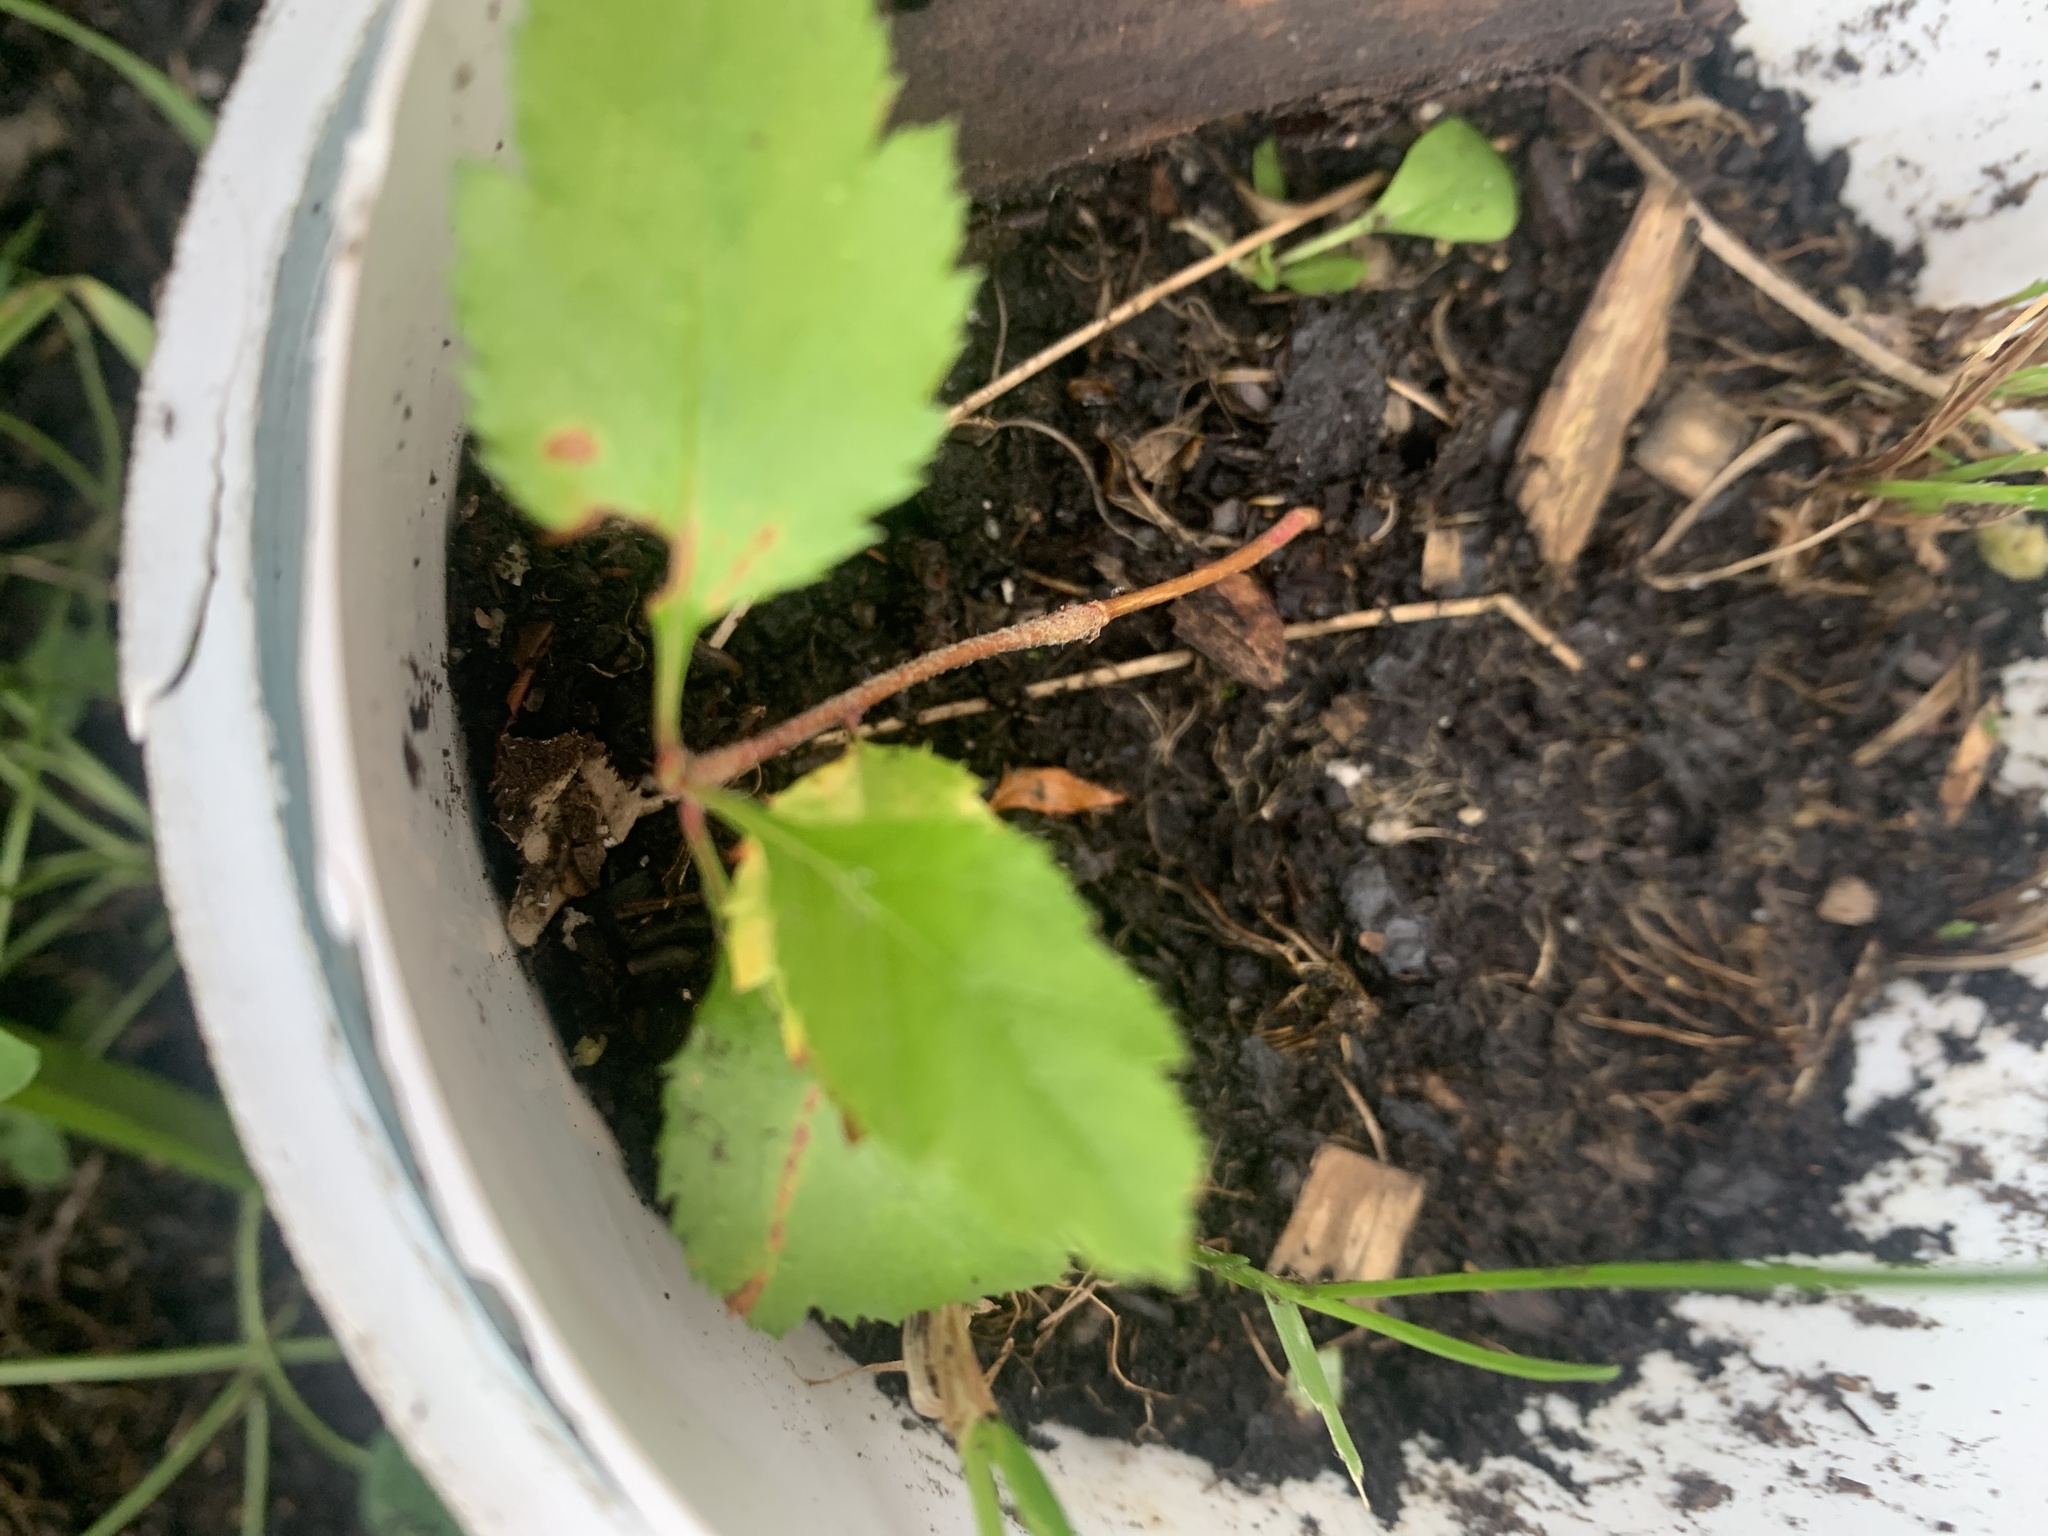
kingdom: Plantae
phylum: Tracheophyta
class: Magnoliopsida
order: Rosales
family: Rosaceae
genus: Crataegus
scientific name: Crataegus
